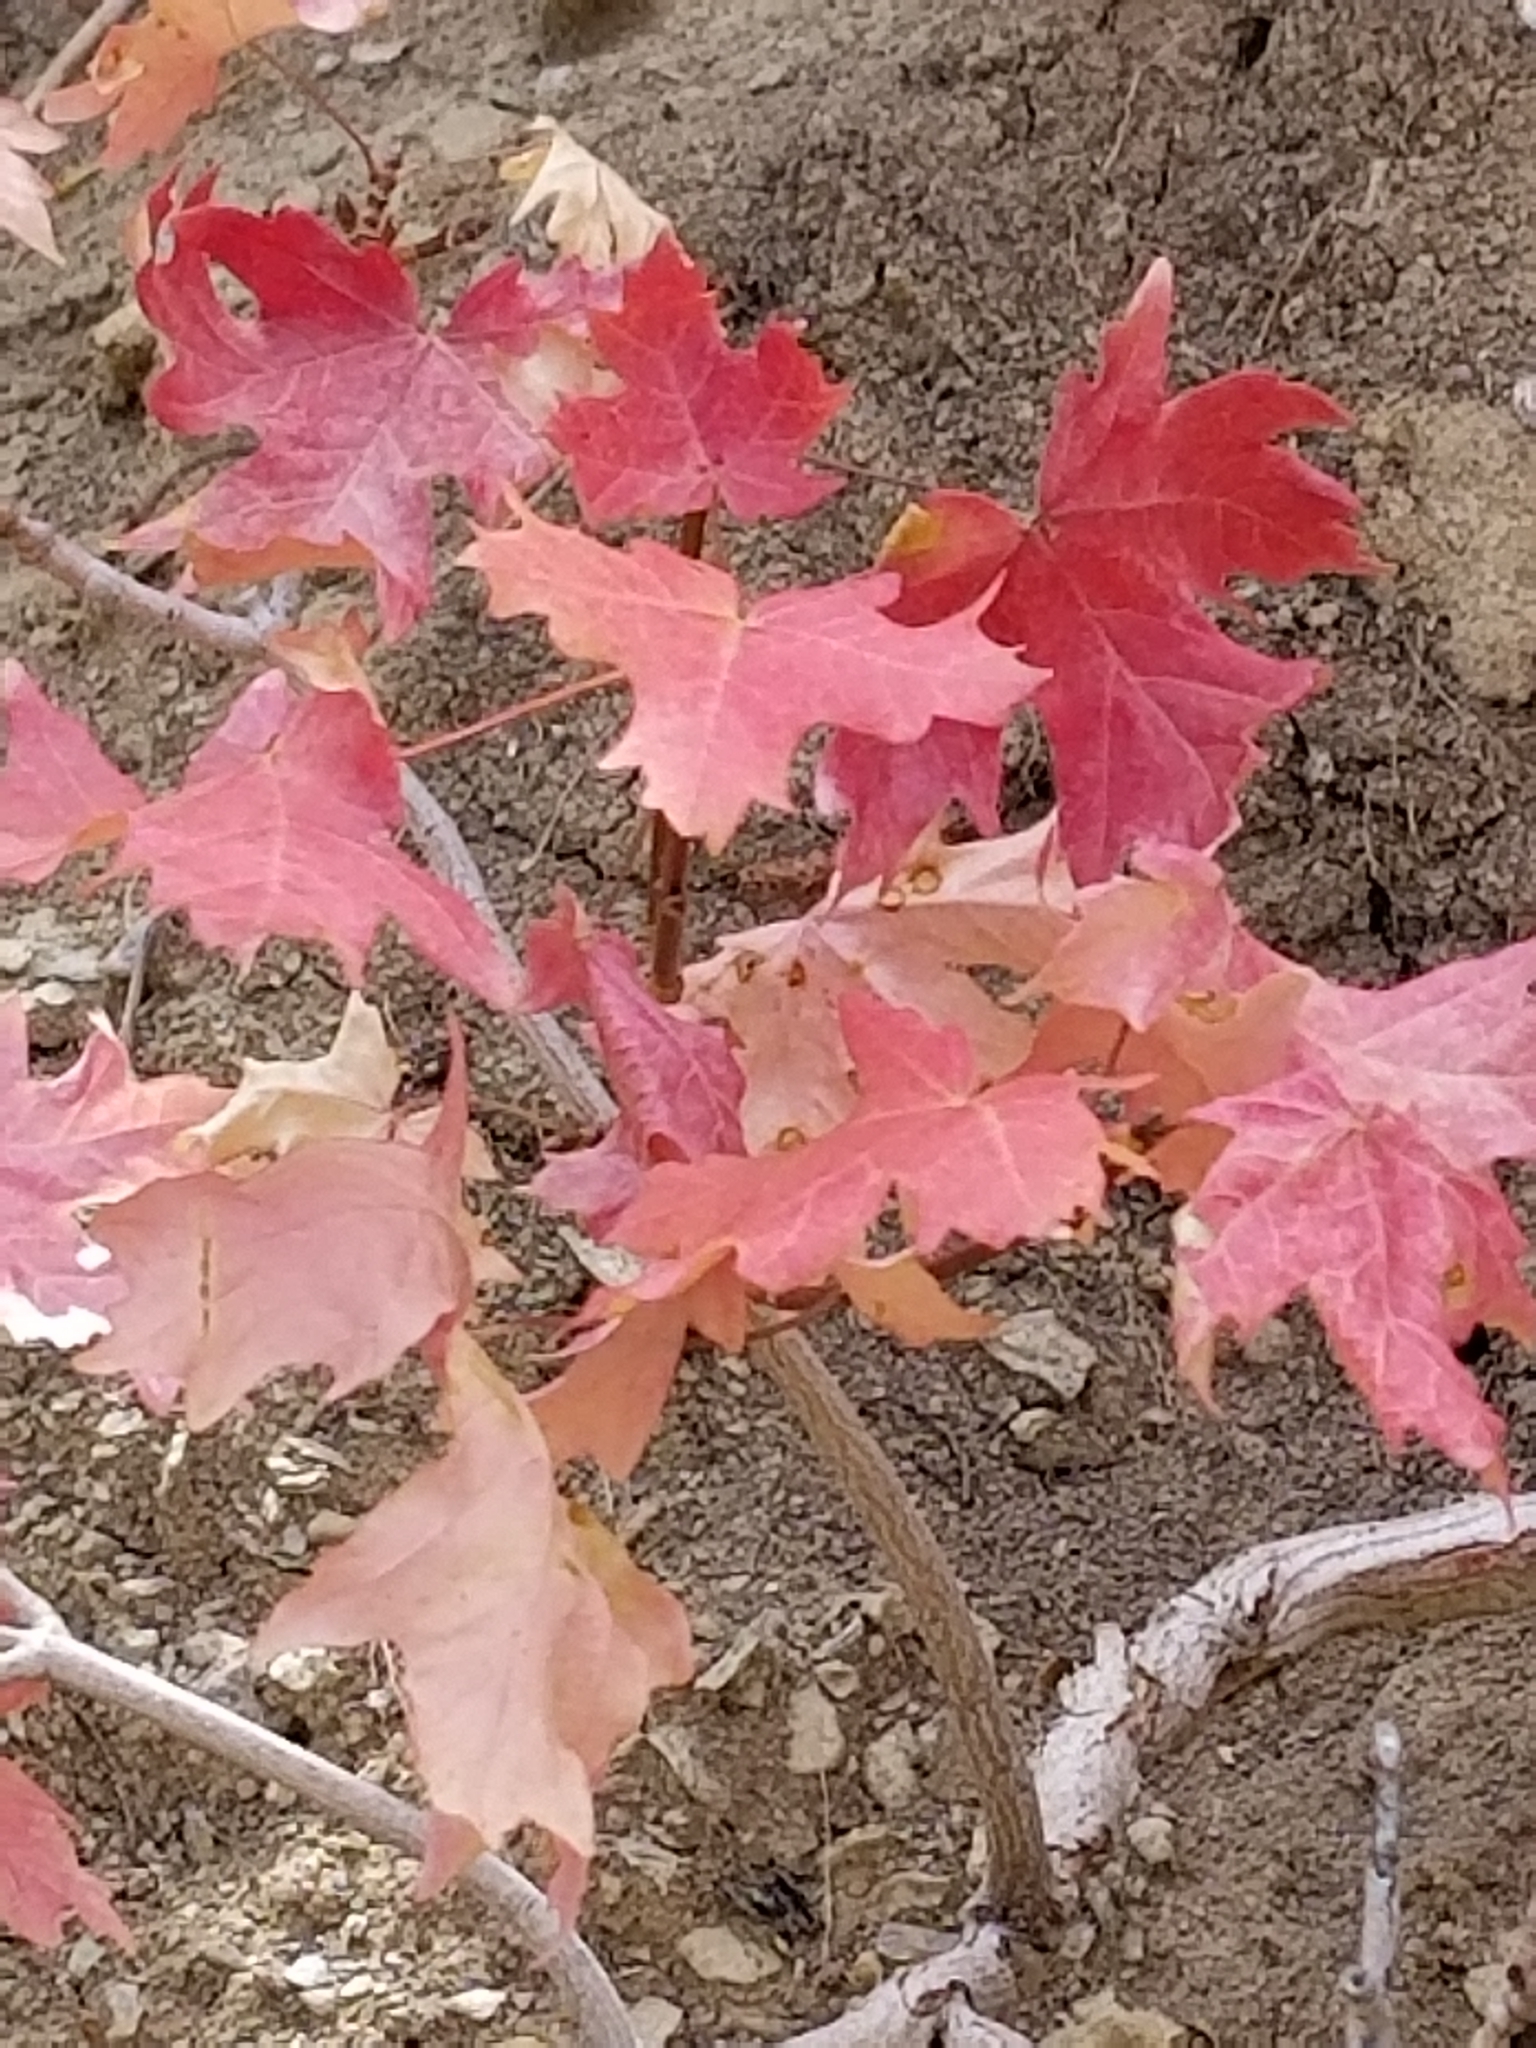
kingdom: Plantae
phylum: Tracheophyta
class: Magnoliopsida
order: Sapindales
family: Sapindaceae
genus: Acer
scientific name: Acer grandidentatum
